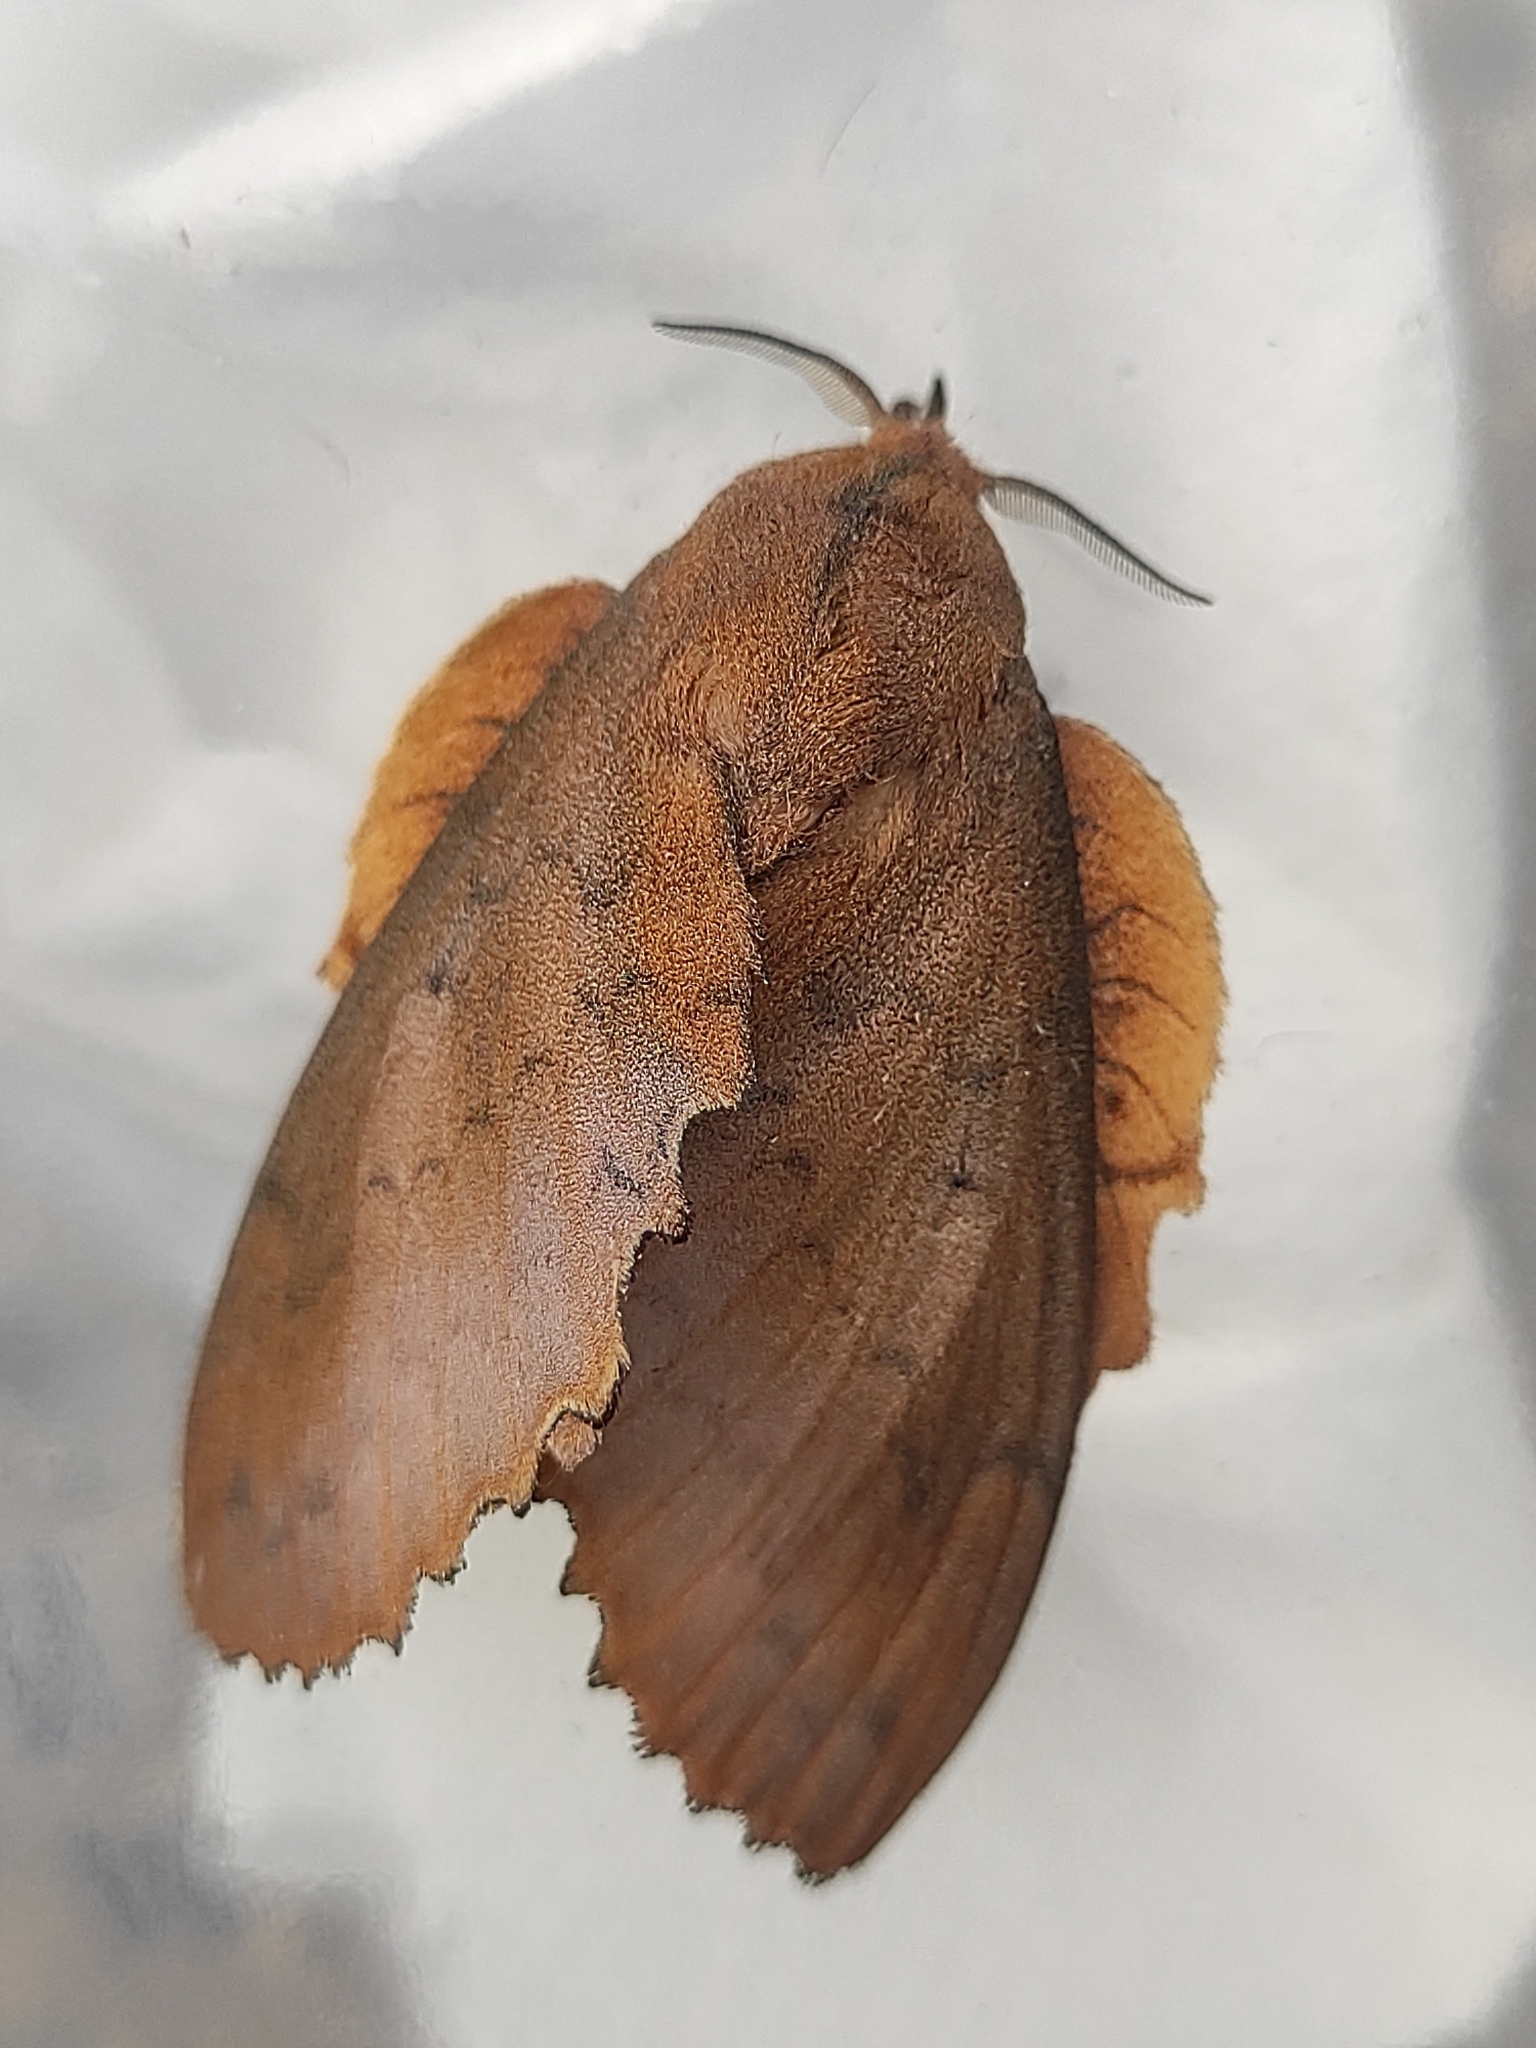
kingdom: Animalia
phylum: Arthropoda
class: Insecta
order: Lepidoptera
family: Lasiocampidae
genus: Gastropacha
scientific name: Gastropacha quercifolia
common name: Lappet
